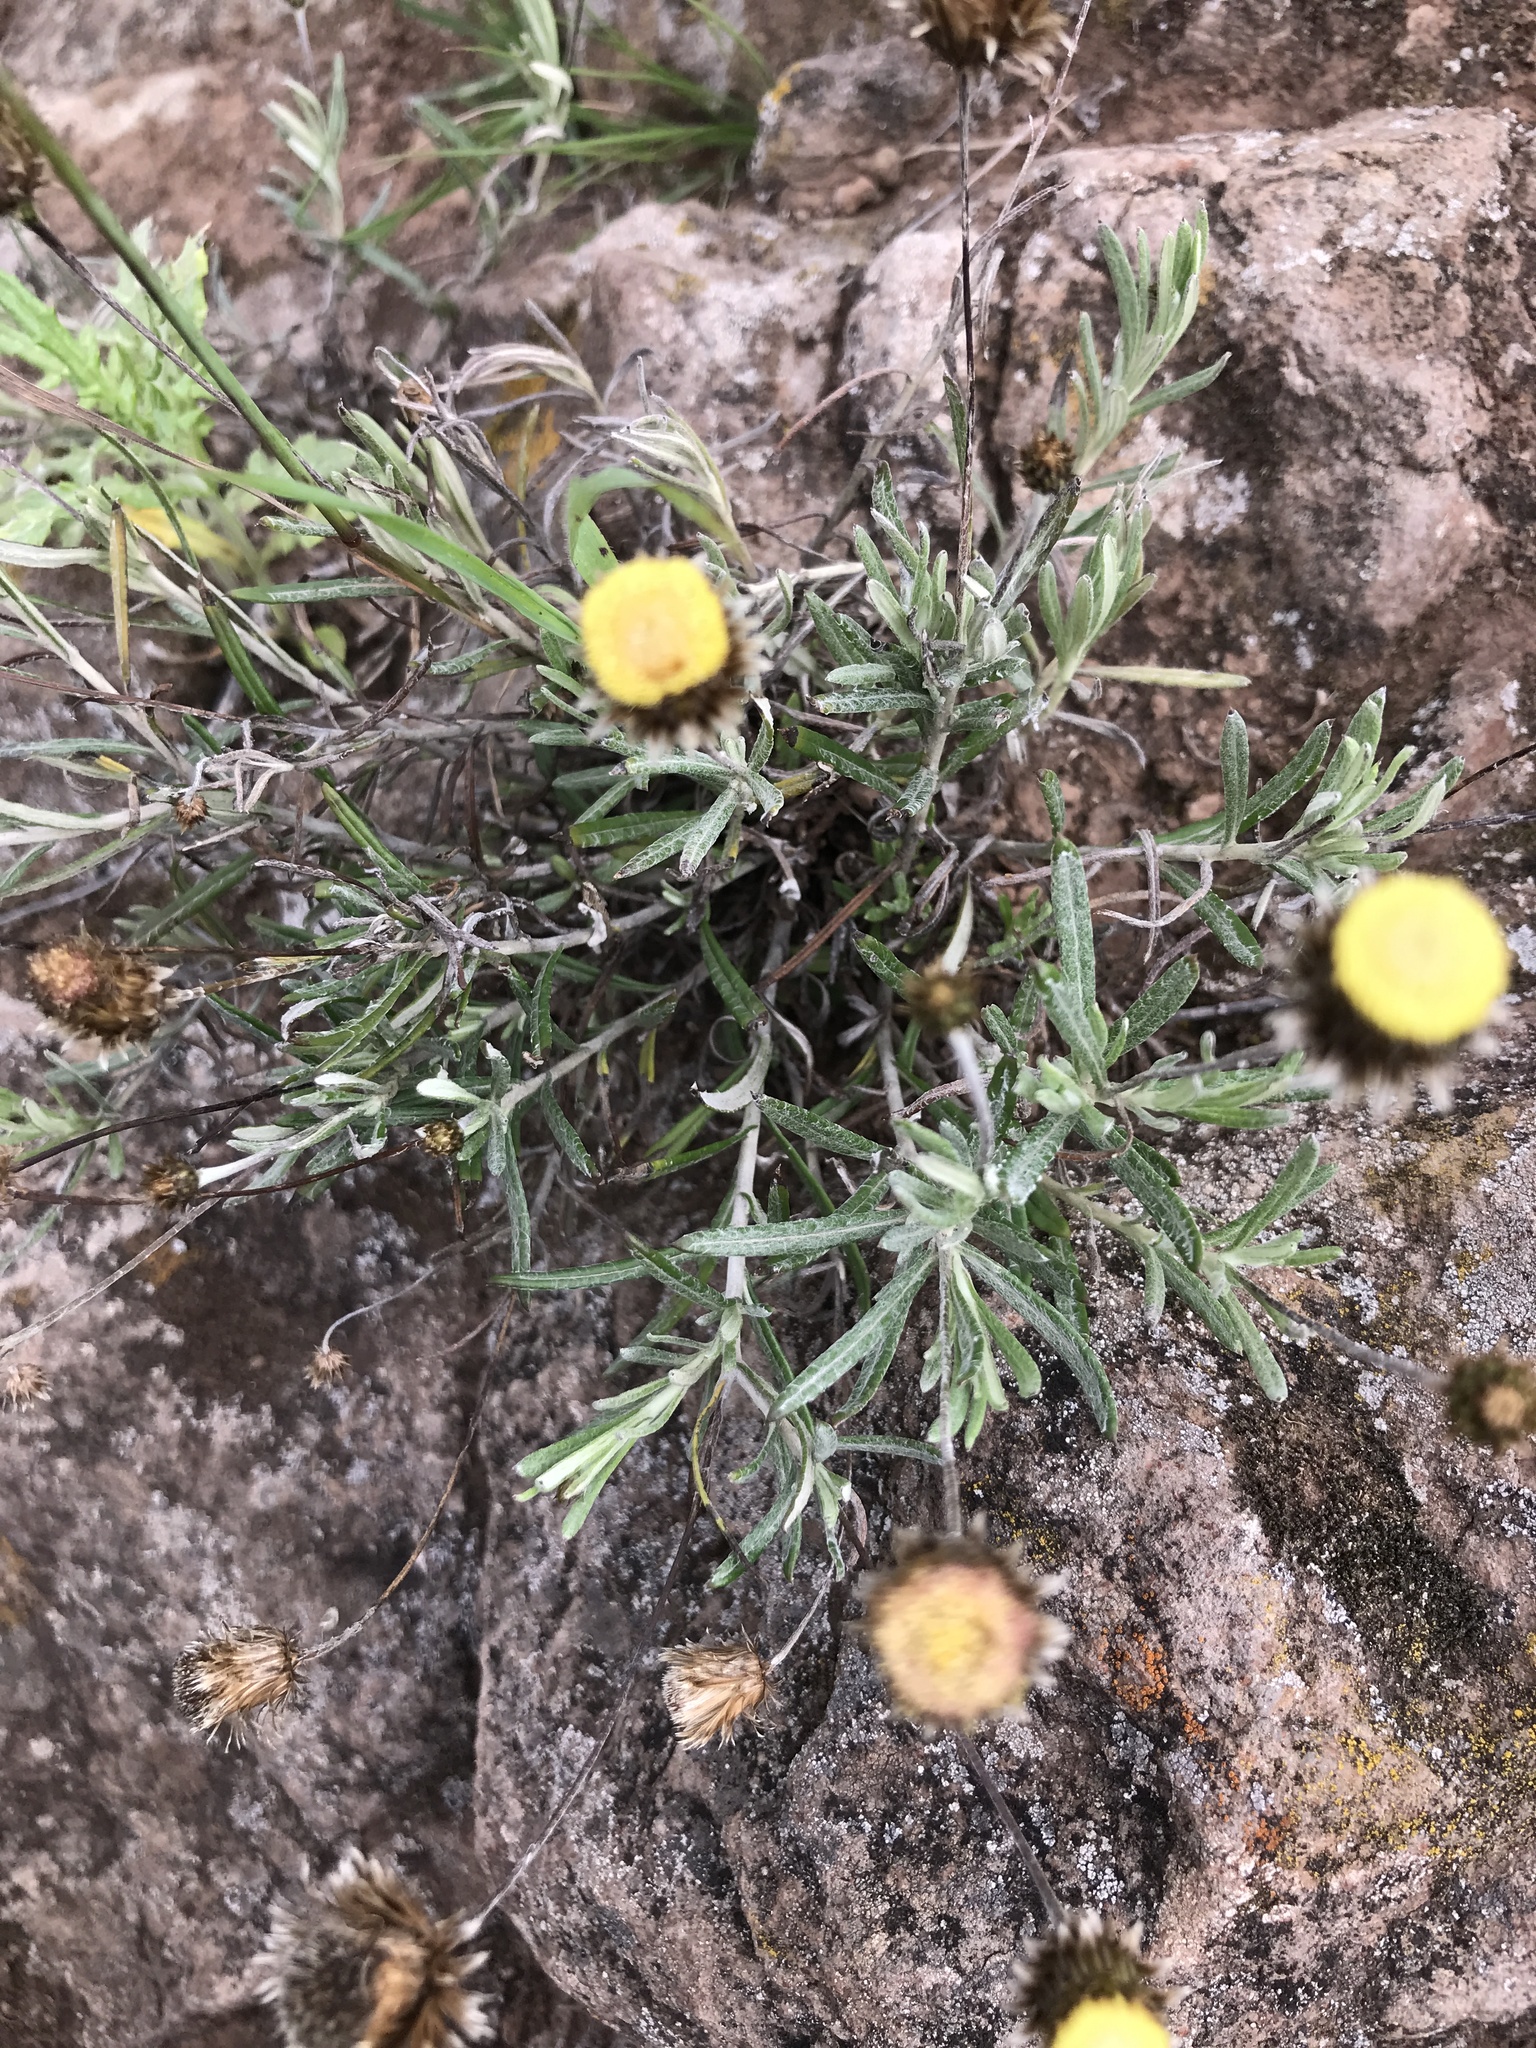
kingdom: Plantae
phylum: Tracheophyta
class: Magnoliopsida
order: Asterales
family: Asteraceae
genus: Phagnalon
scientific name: Phagnalon saxatile
